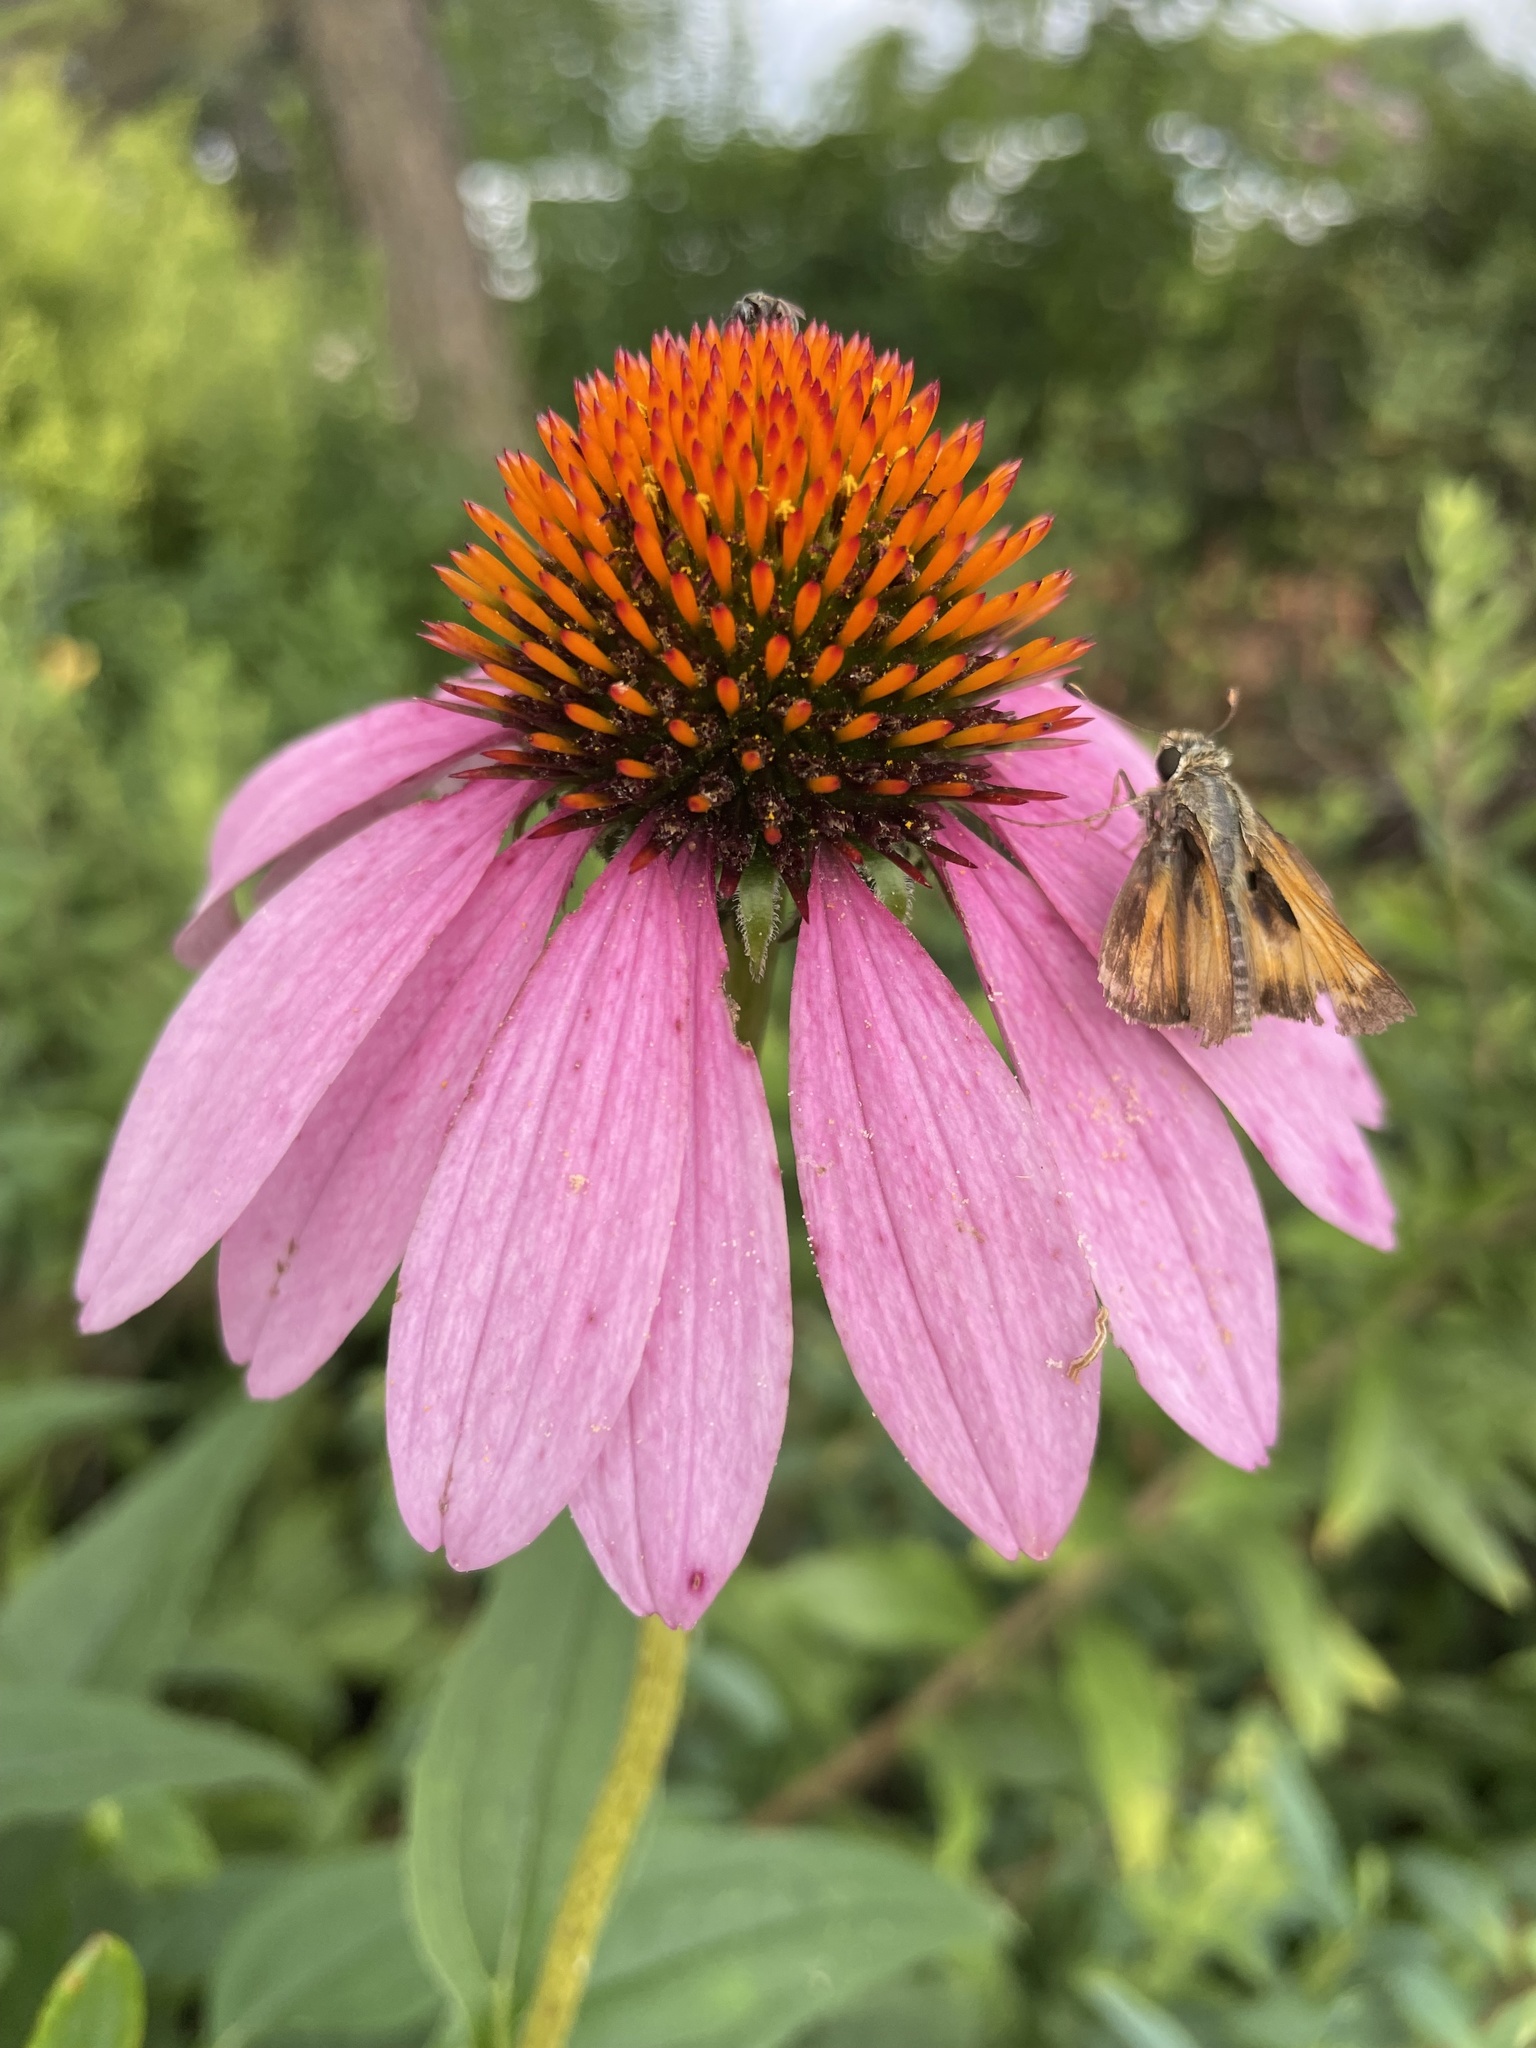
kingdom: Animalia
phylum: Arthropoda
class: Insecta
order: Lepidoptera
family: Hesperiidae
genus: Atalopedes
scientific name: Atalopedes
